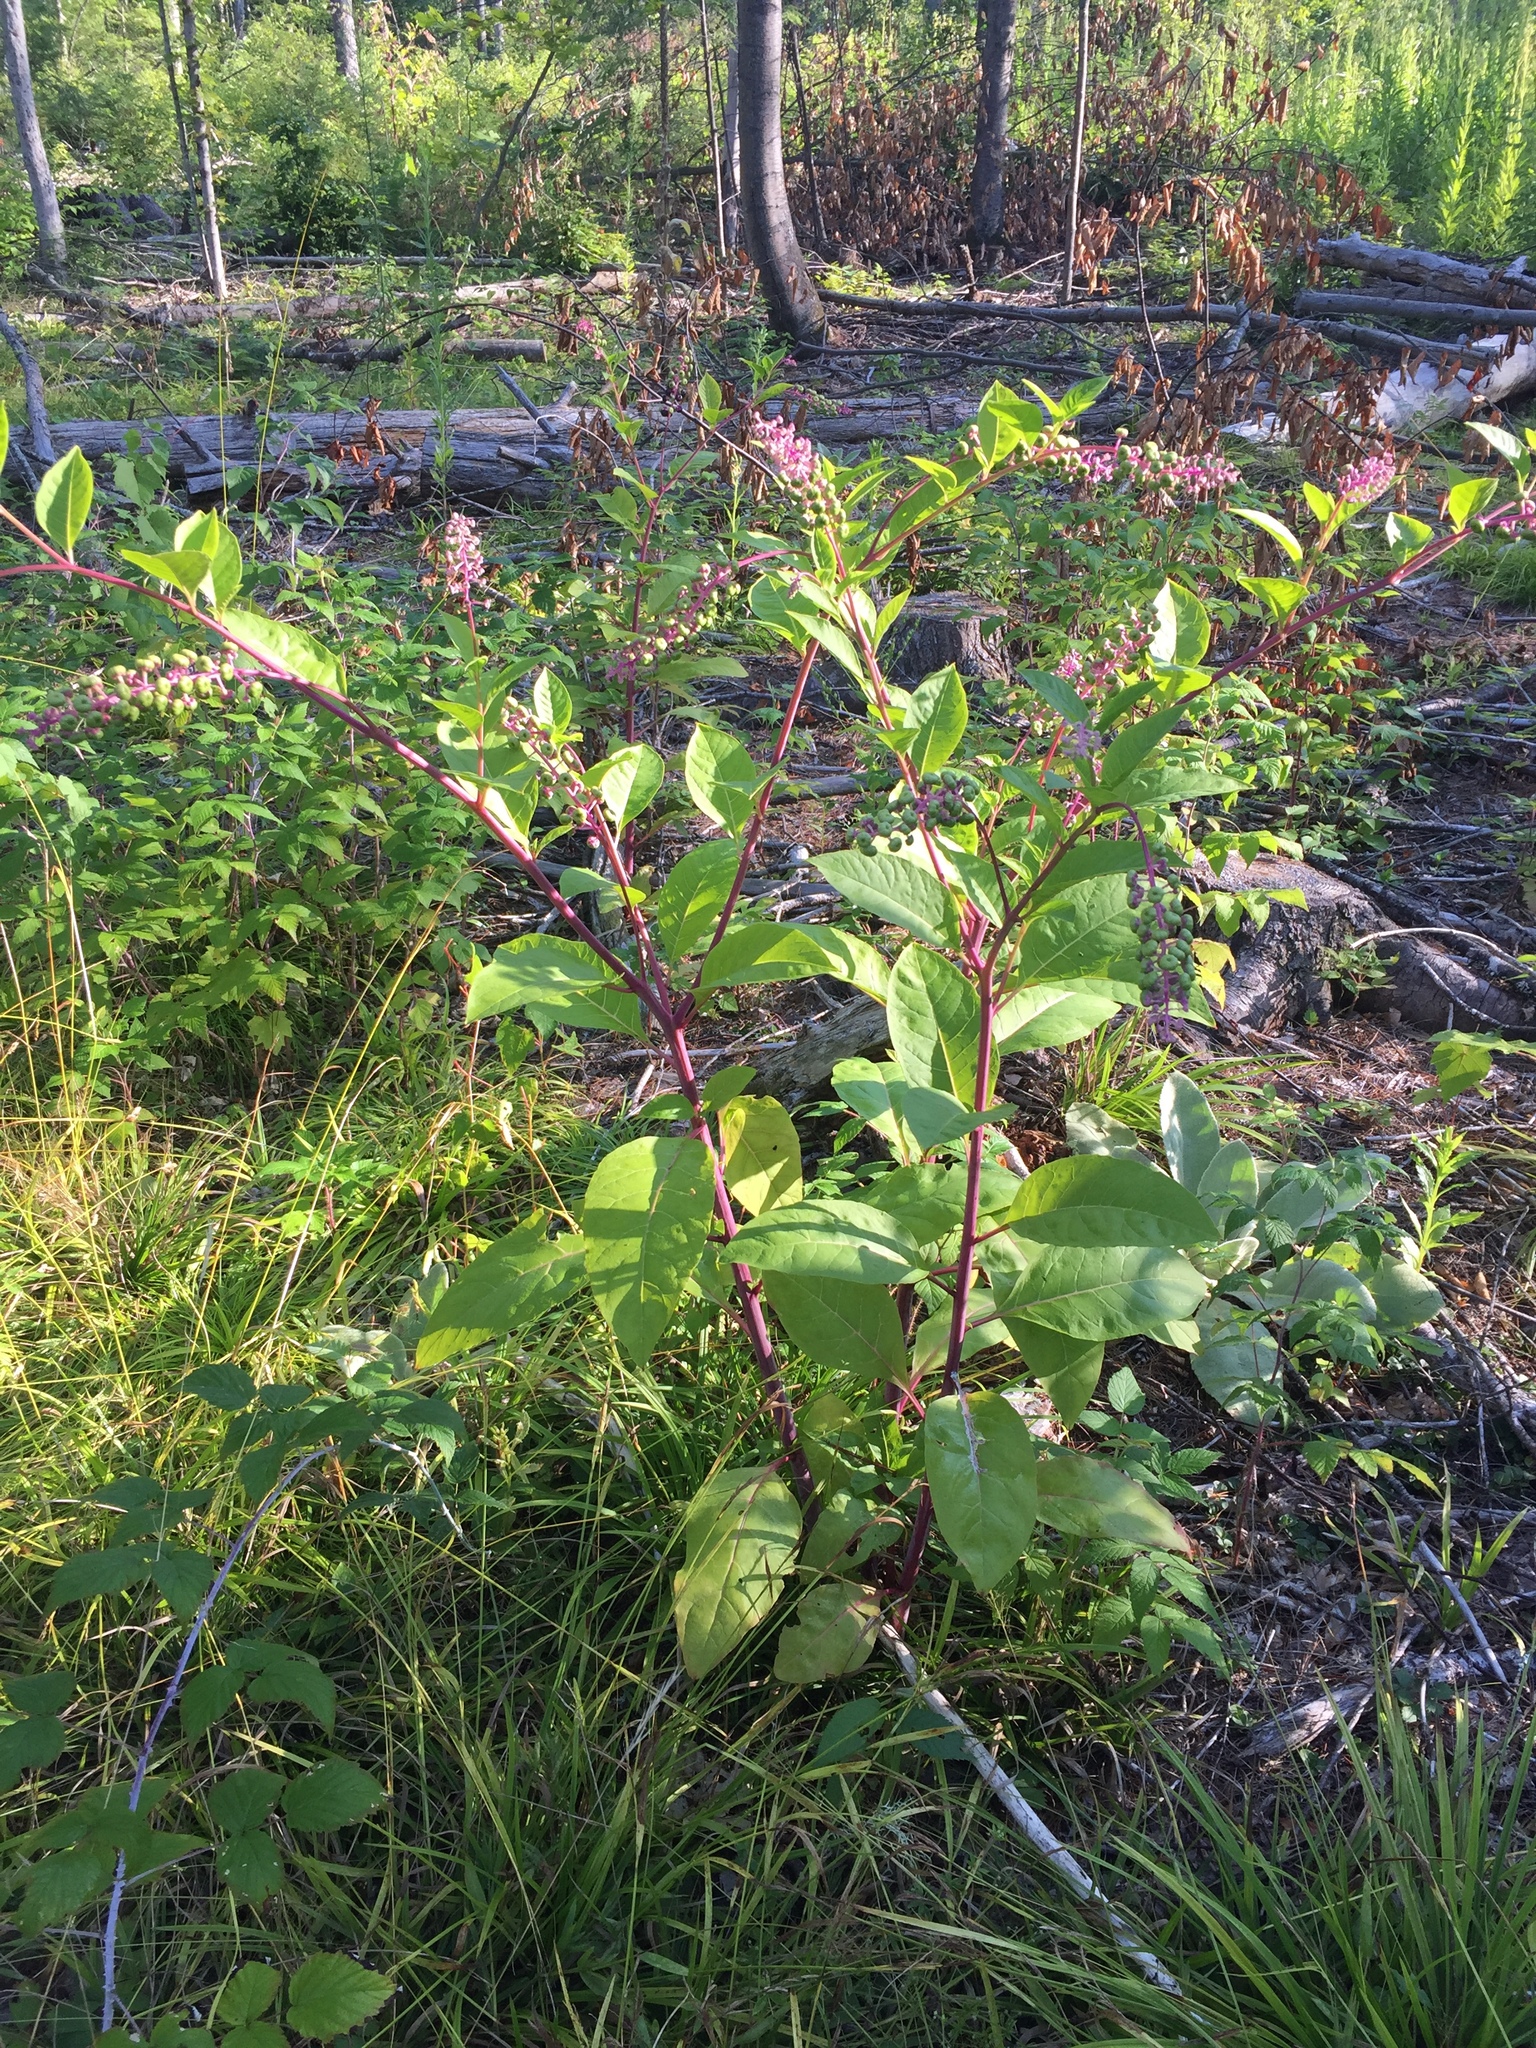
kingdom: Plantae
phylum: Tracheophyta
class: Magnoliopsida
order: Caryophyllales
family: Phytolaccaceae
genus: Phytolacca
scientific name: Phytolacca americana
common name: American pokeweed
